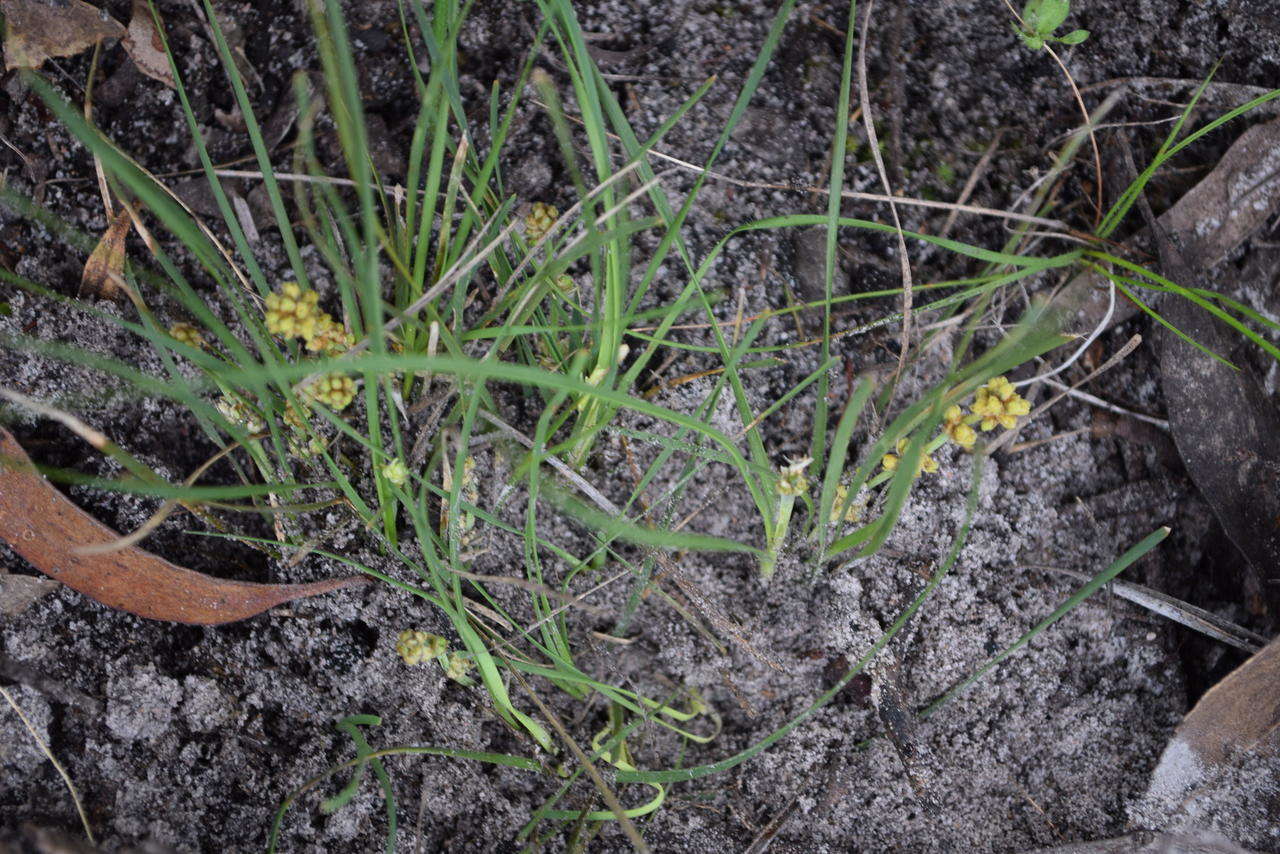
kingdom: Plantae
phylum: Tracheophyta
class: Liliopsida
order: Asparagales
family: Asparagaceae
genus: Lomandra
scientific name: Lomandra filiformis
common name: Wattle mat-rush
